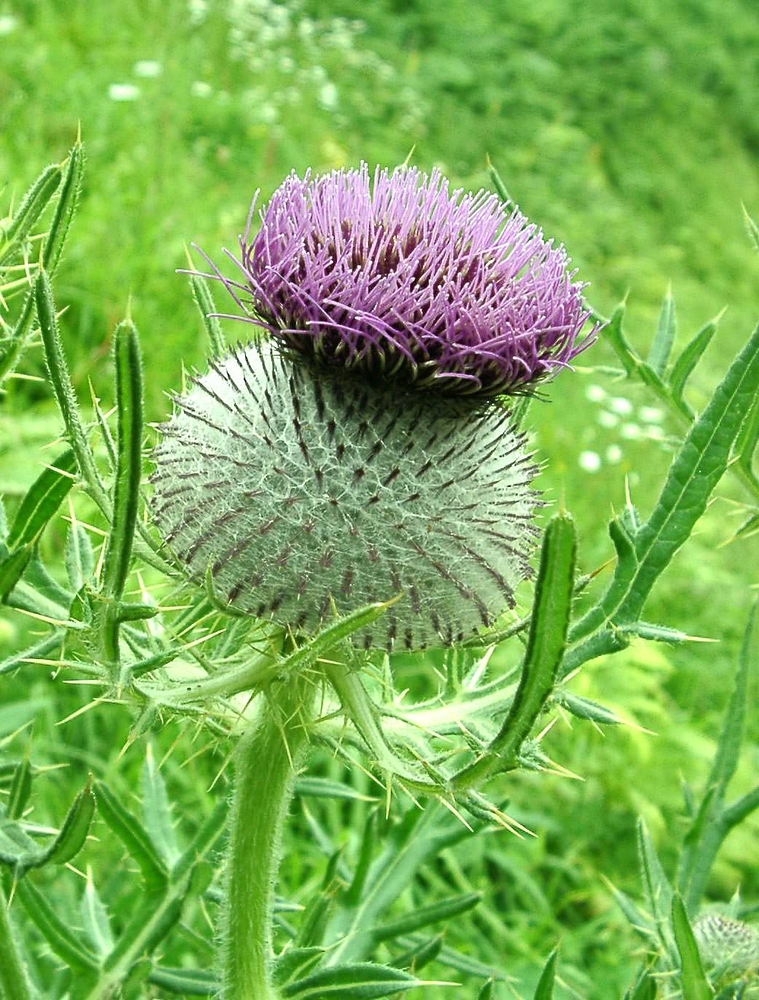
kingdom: Plantae
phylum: Tracheophyta
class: Magnoliopsida
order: Asterales
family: Asteraceae
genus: Lophiolepis
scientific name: Lophiolepis eriophora
